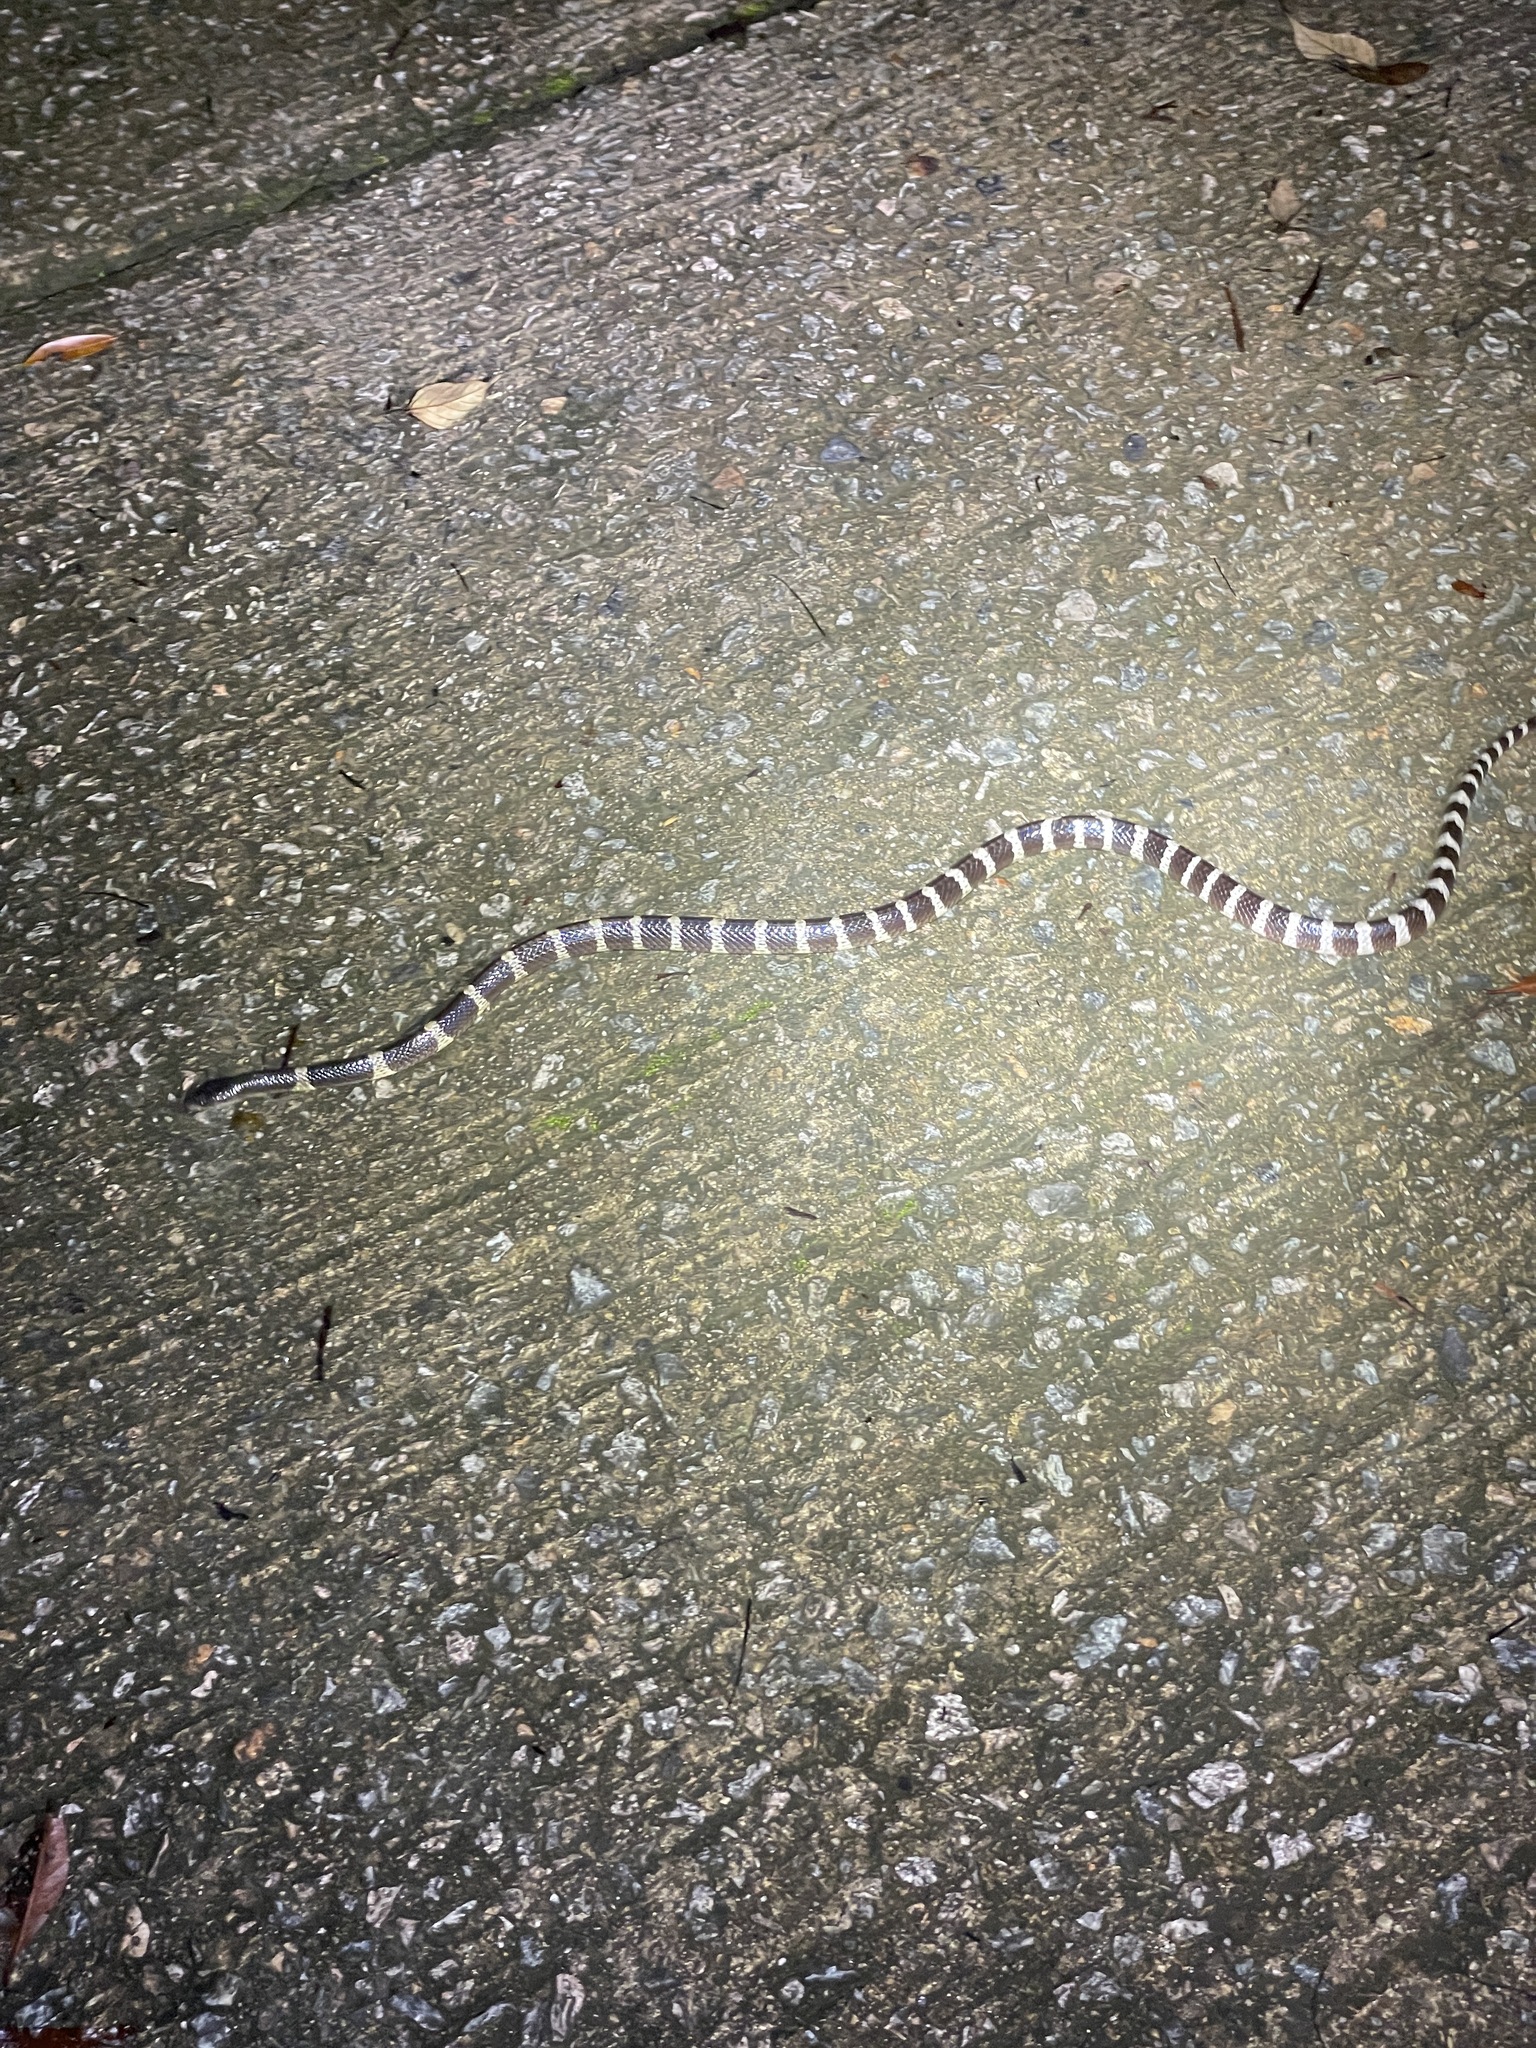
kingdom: Animalia
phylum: Chordata
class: Squamata
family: Elapidae
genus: Bungarus
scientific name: Bungarus multicinctus
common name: Many-banded krait
